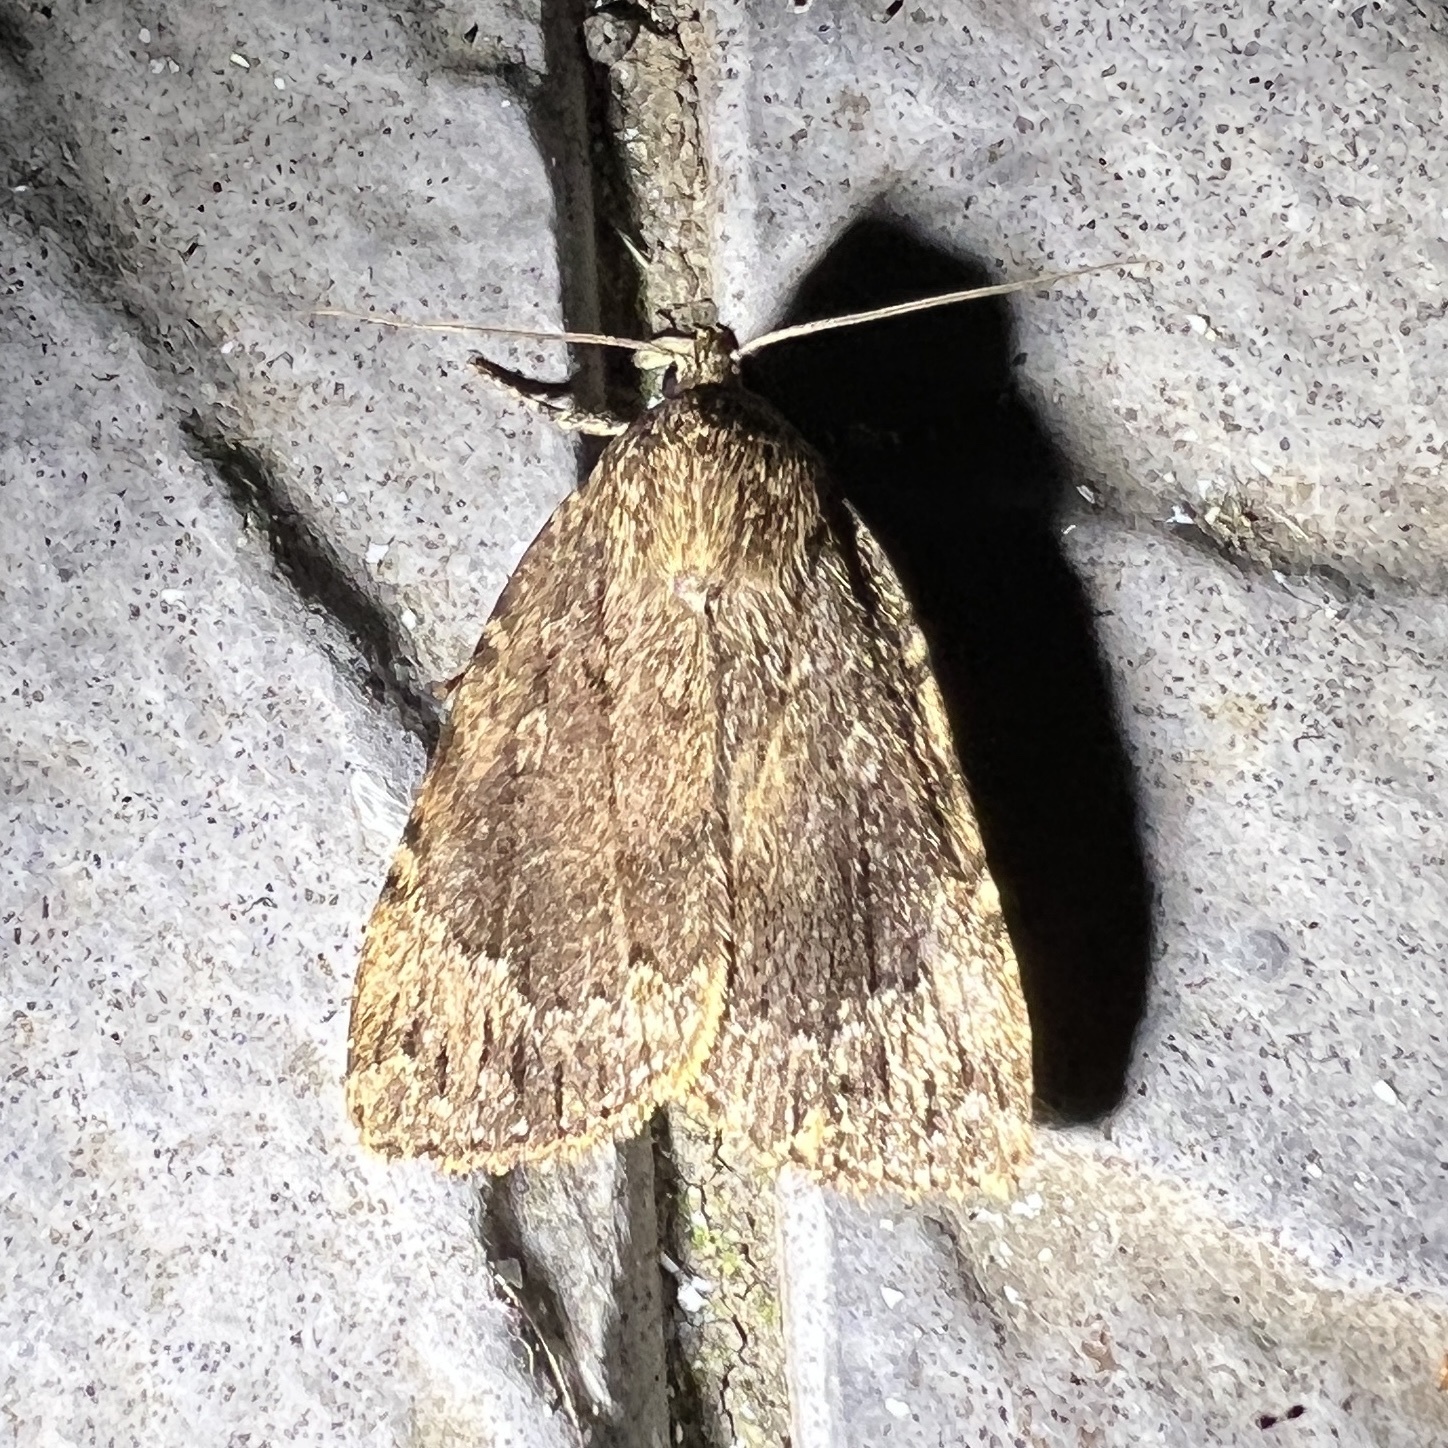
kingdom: Animalia
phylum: Arthropoda
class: Insecta
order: Lepidoptera
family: Noctuidae
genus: Amphipyra
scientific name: Amphipyra pyramidoides
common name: American copper underwing
